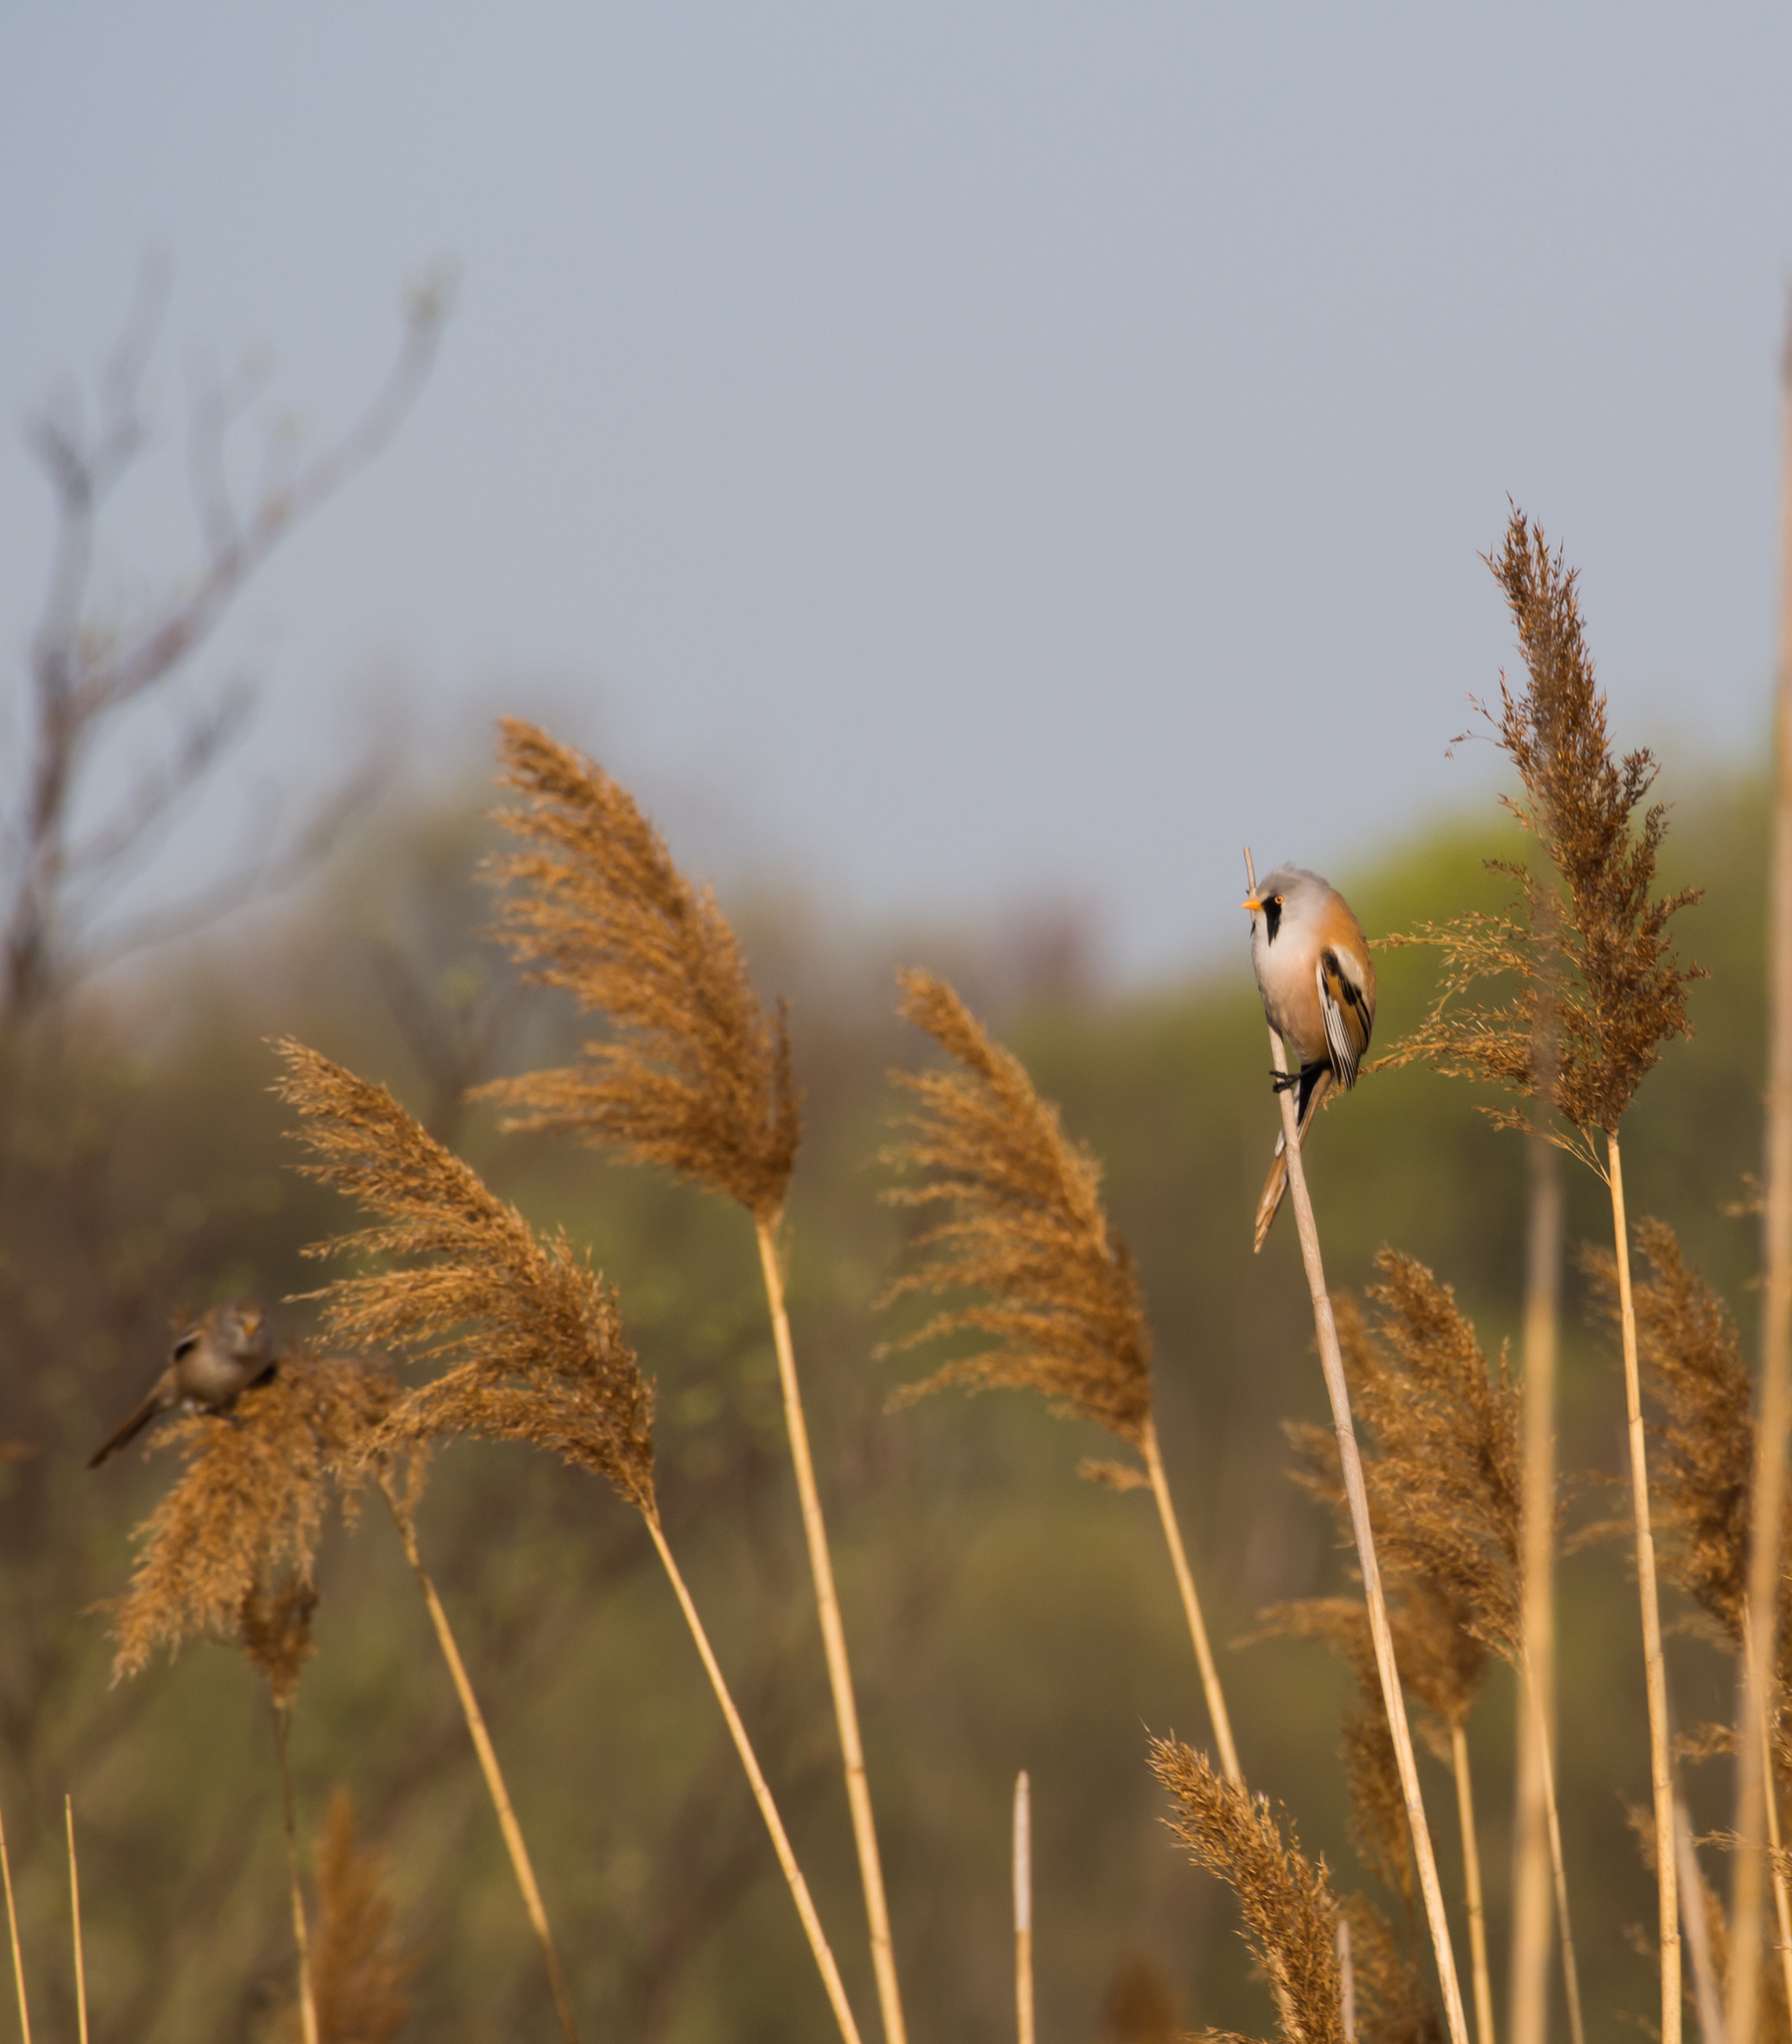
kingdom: Animalia
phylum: Chordata
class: Aves
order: Passeriformes
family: Panuridae
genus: Panurus
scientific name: Panurus biarmicus
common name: Bearded reedling
